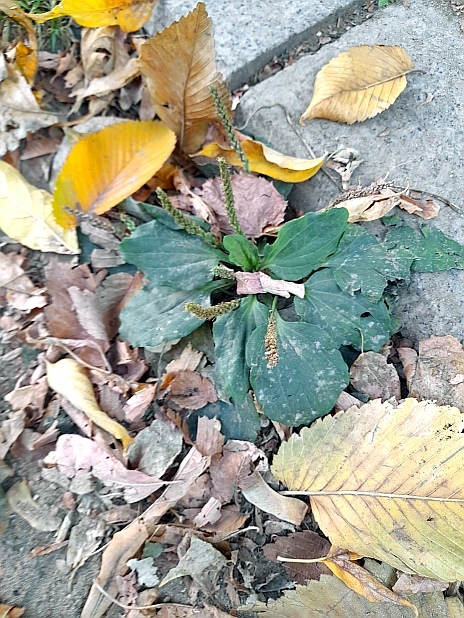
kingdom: Plantae
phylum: Tracheophyta
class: Magnoliopsida
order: Lamiales
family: Plantaginaceae
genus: Plantago
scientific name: Plantago major
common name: Common plantain
